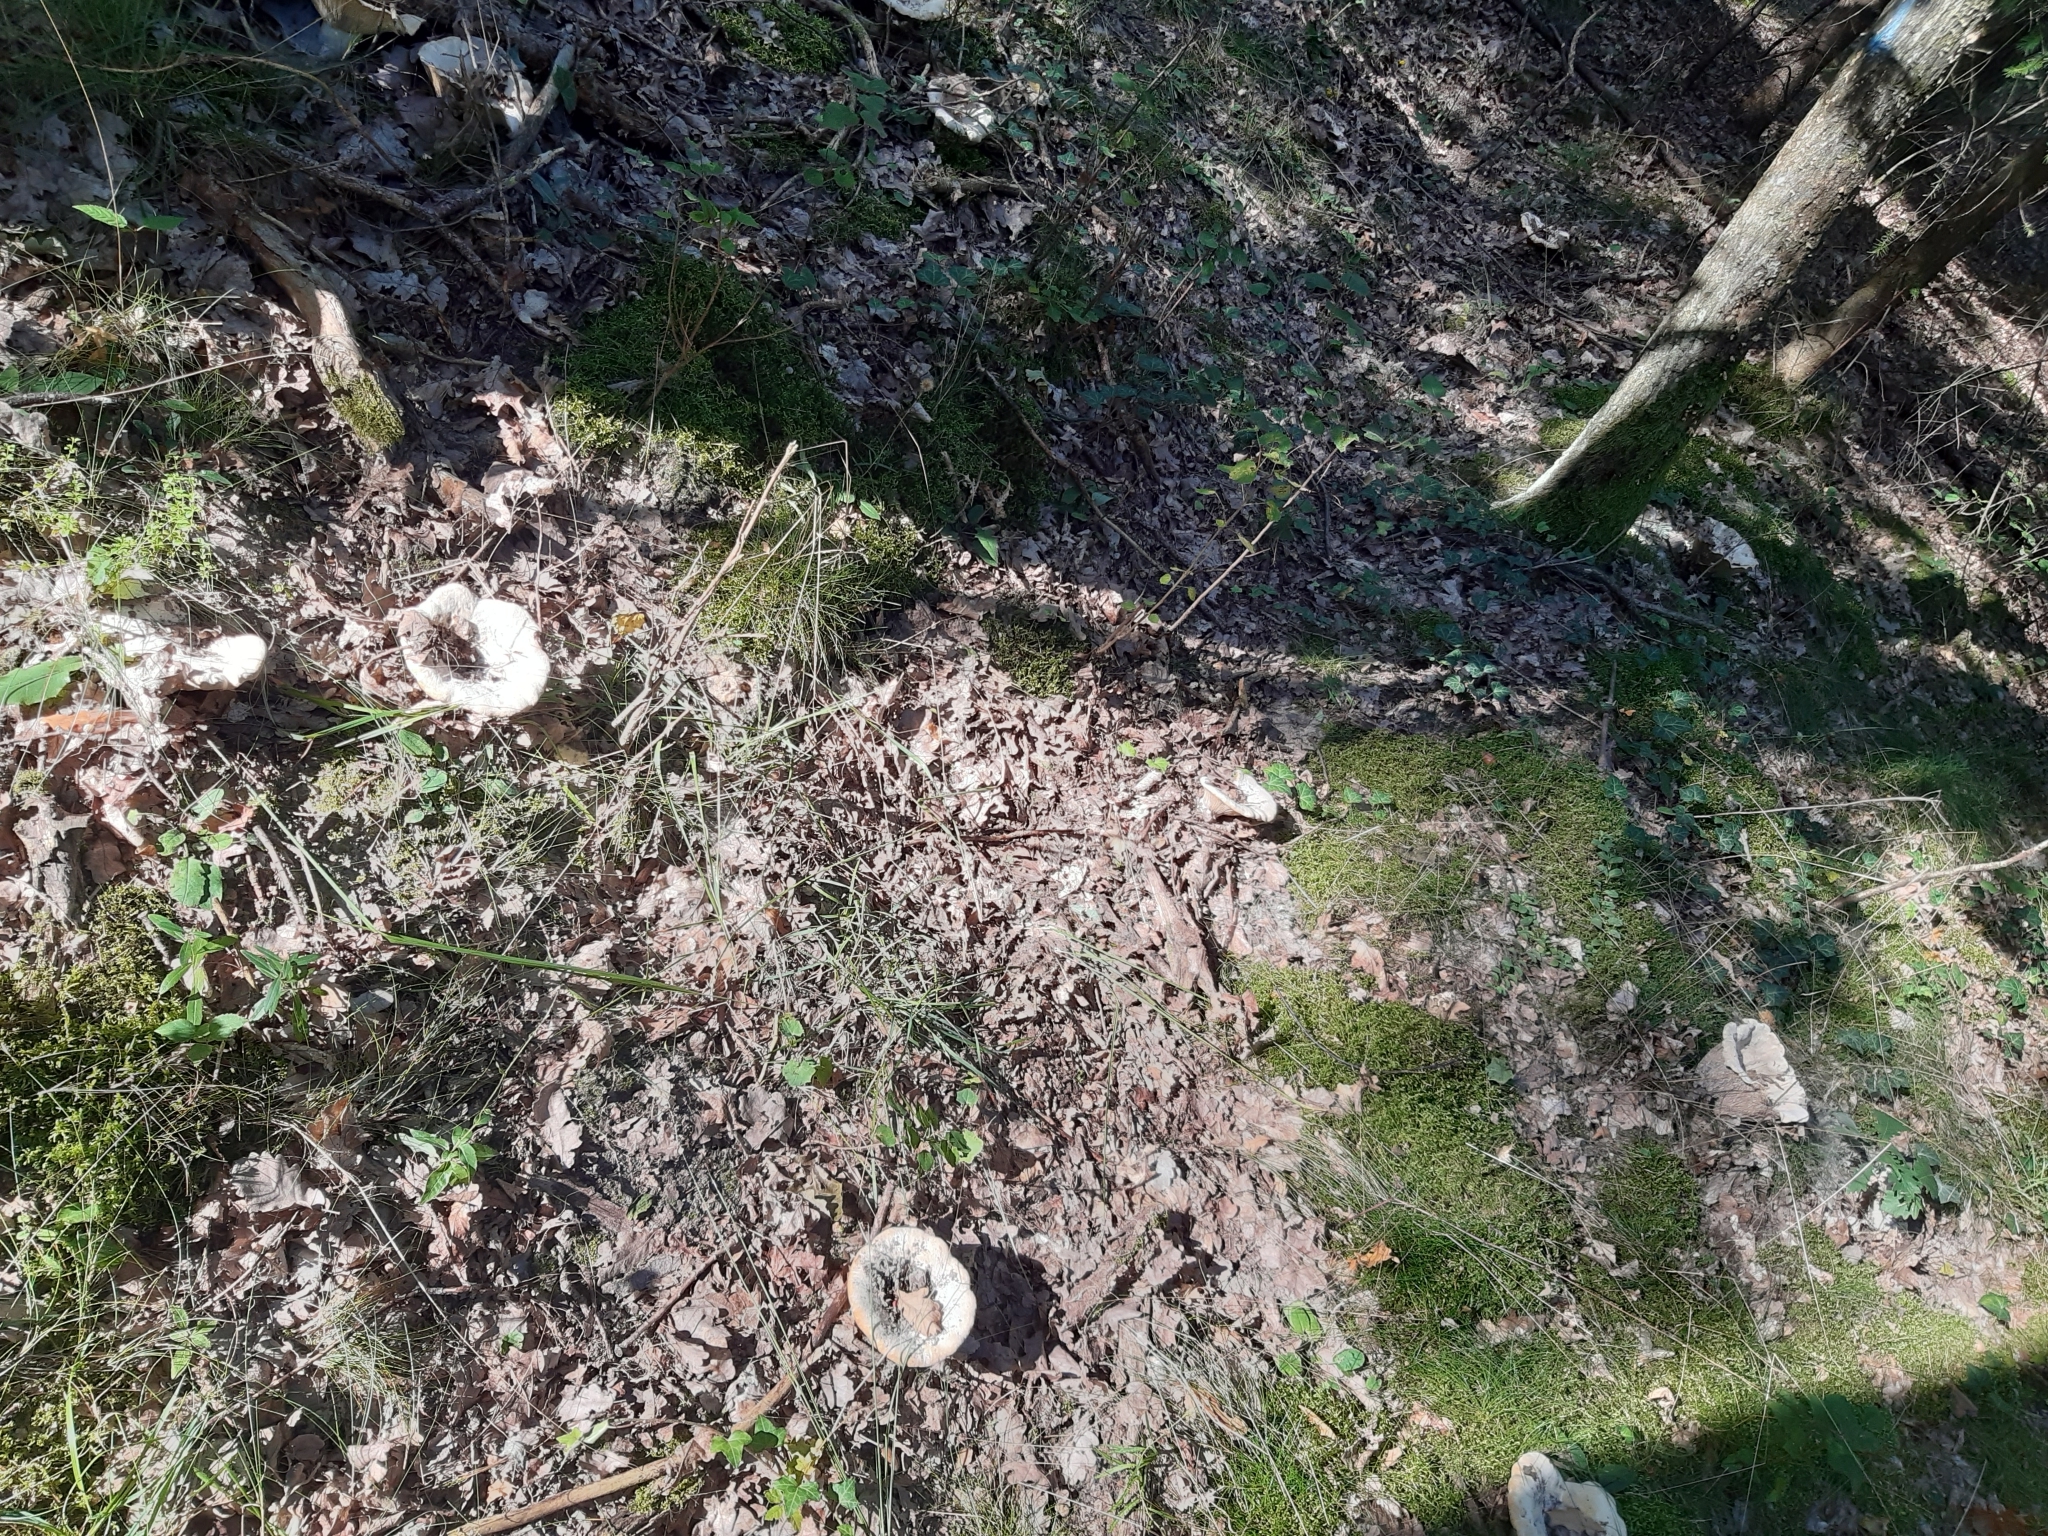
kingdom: Fungi
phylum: Basidiomycota
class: Agaricomycetes
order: Russulales
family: Russulaceae
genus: Lactifluus
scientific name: Lactifluus vellereus
